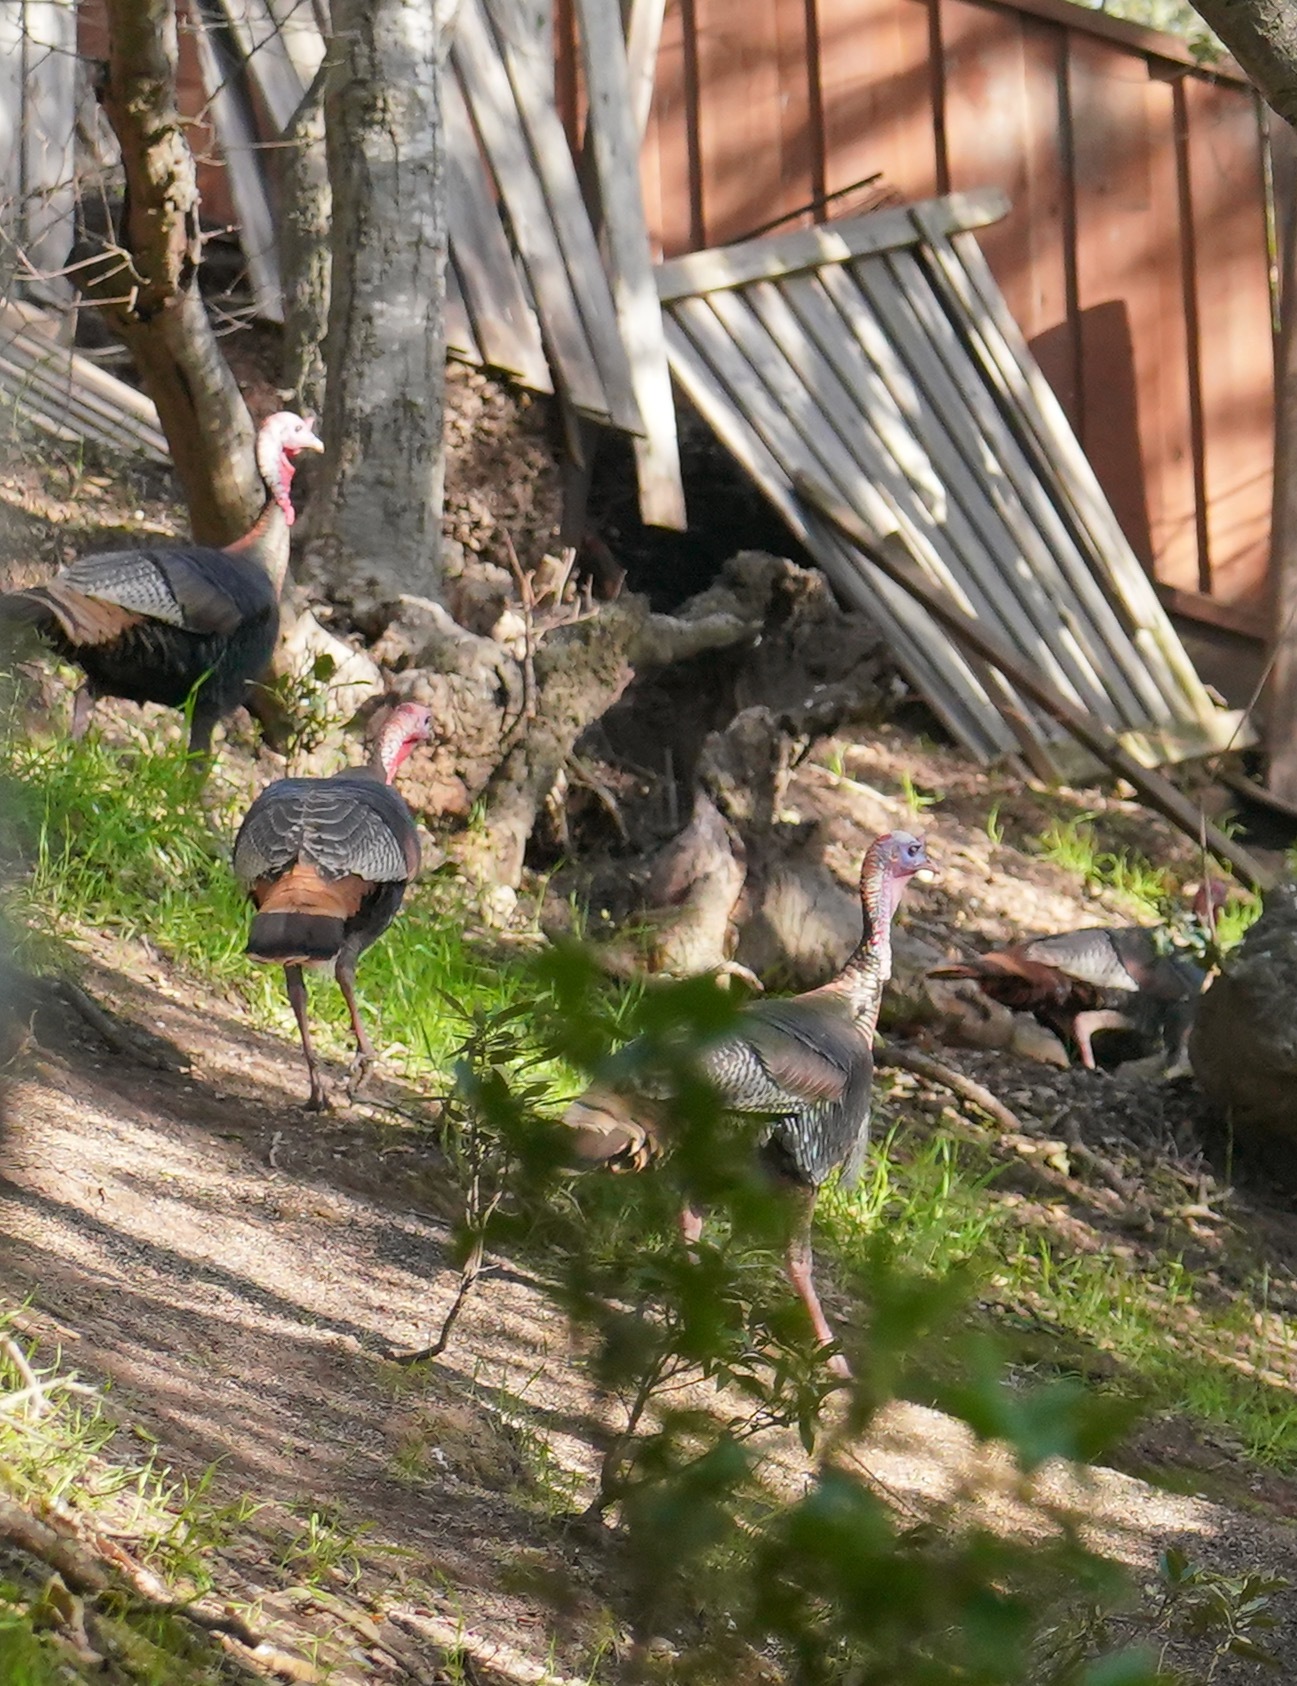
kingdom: Animalia
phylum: Chordata
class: Aves
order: Galliformes
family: Phasianidae
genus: Meleagris
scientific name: Meleagris gallopavo
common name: Wild turkey
